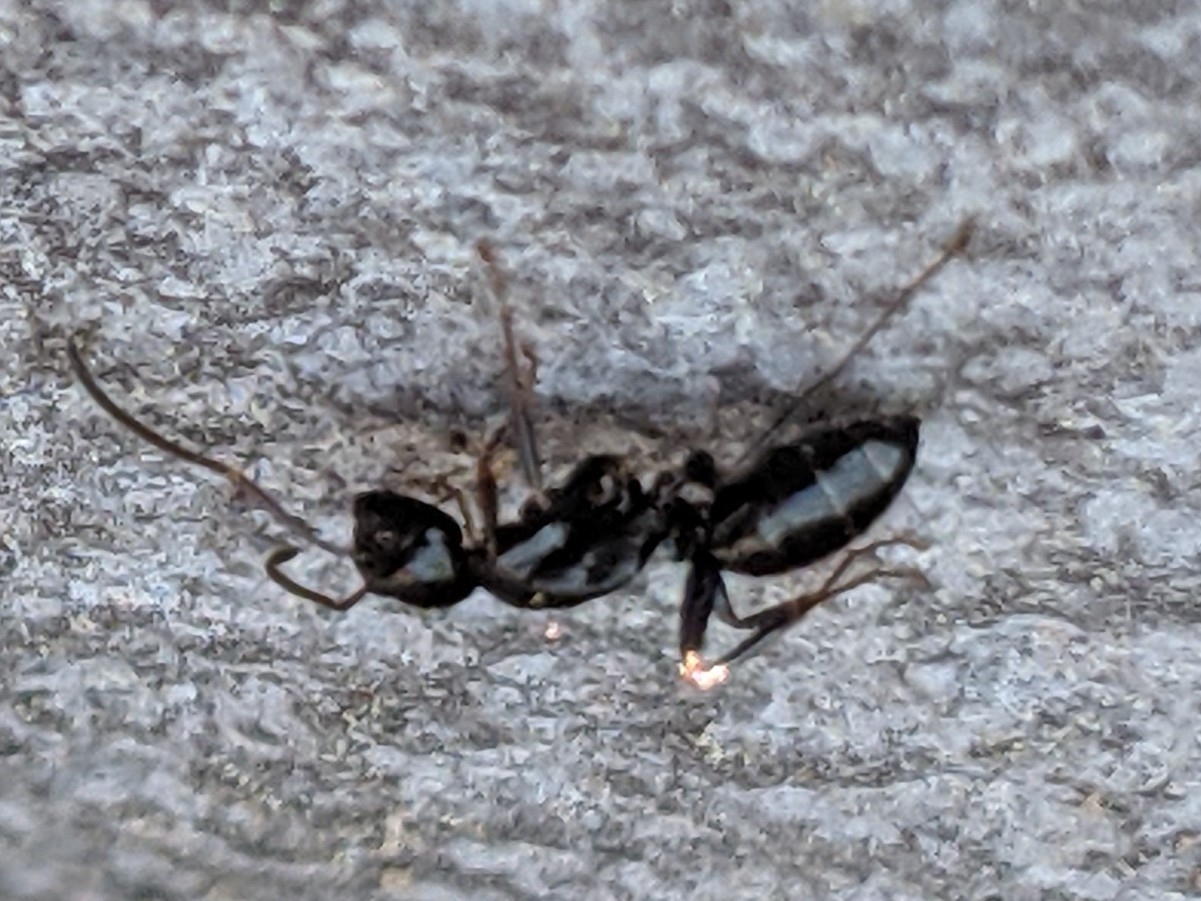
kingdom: Animalia
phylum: Arthropoda
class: Insecta
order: Hymenoptera
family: Formicidae
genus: Myrmentoma
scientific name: Myrmentoma
